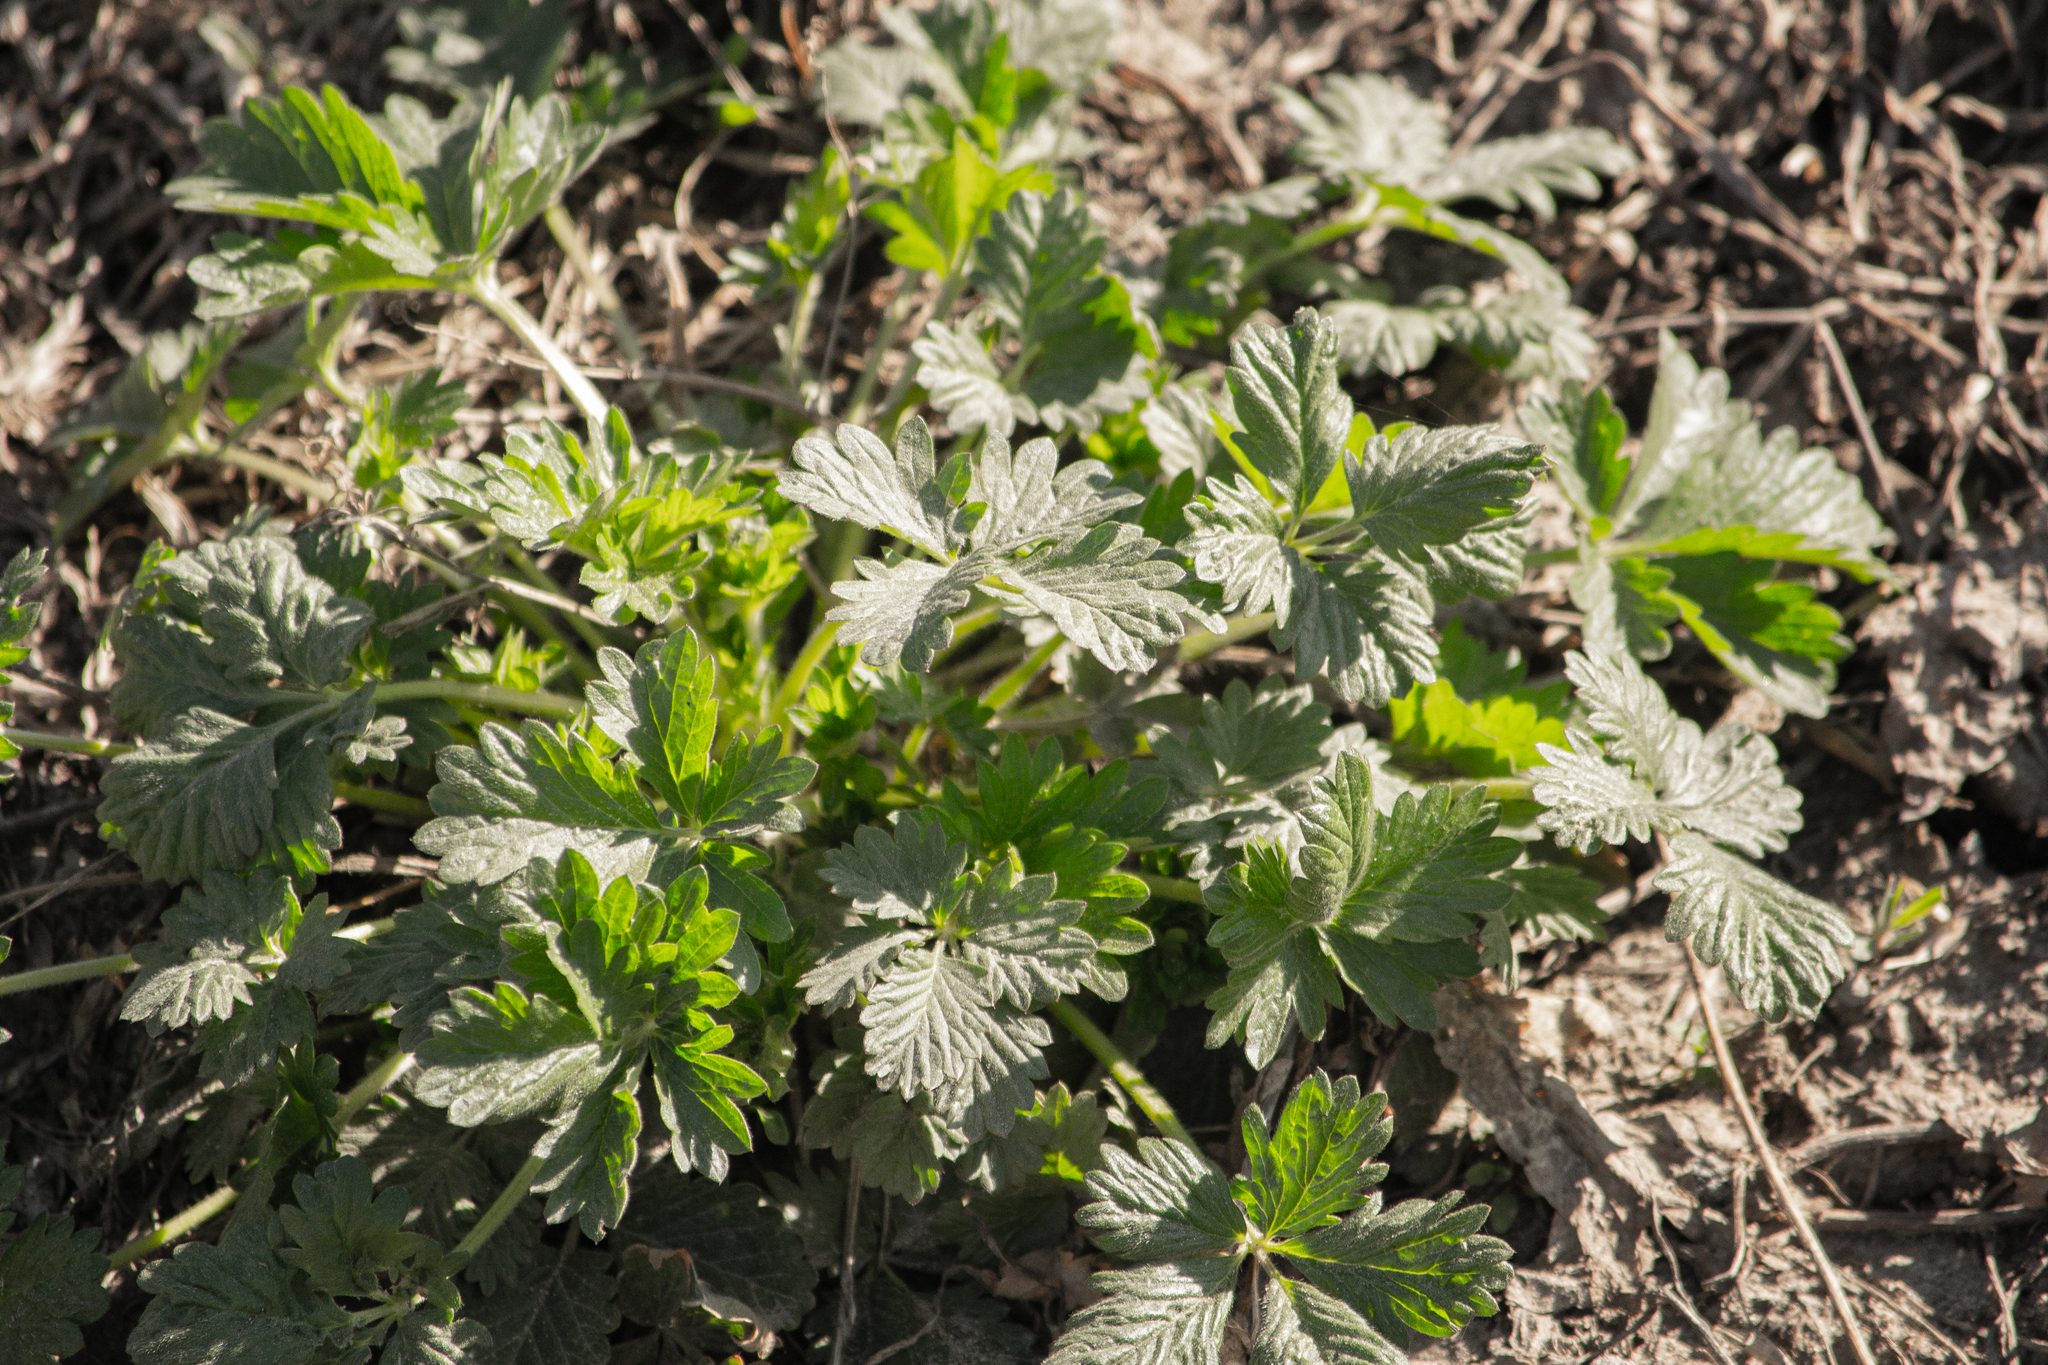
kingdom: Plantae
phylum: Tracheophyta
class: Magnoliopsida
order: Rosales
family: Rosaceae
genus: Potentilla
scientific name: Potentilla intermedia
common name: Downy cinquefoil
